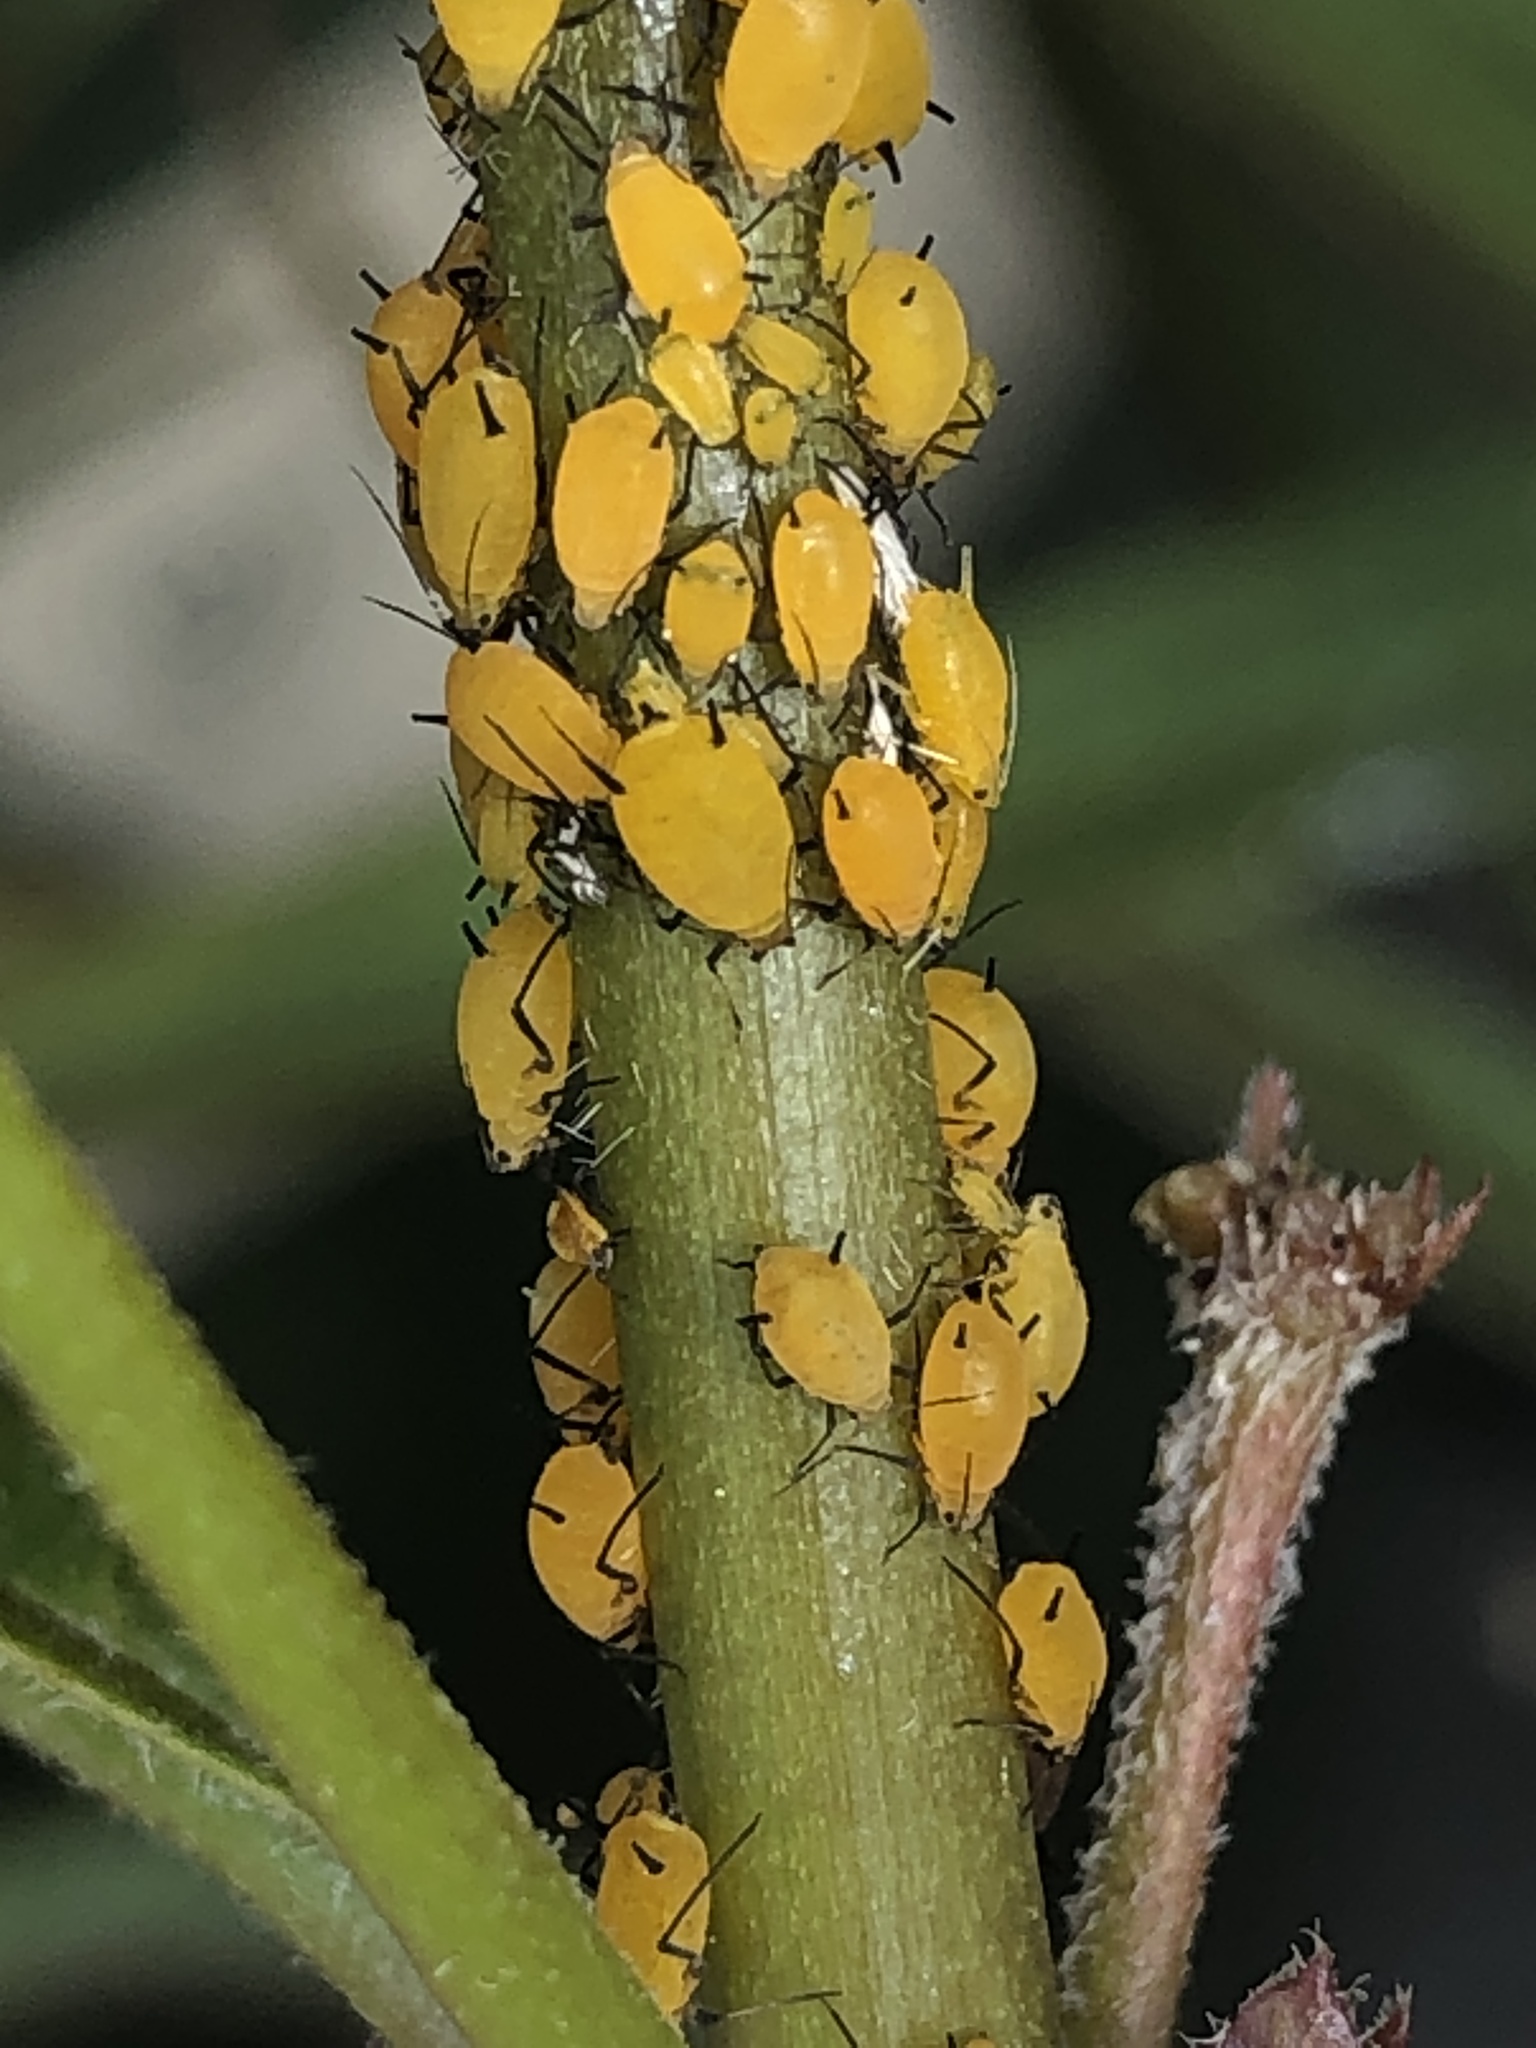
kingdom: Animalia
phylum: Arthropoda
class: Insecta
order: Hemiptera
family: Aphididae
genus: Aphis
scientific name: Aphis nerii
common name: Oleander aphid
